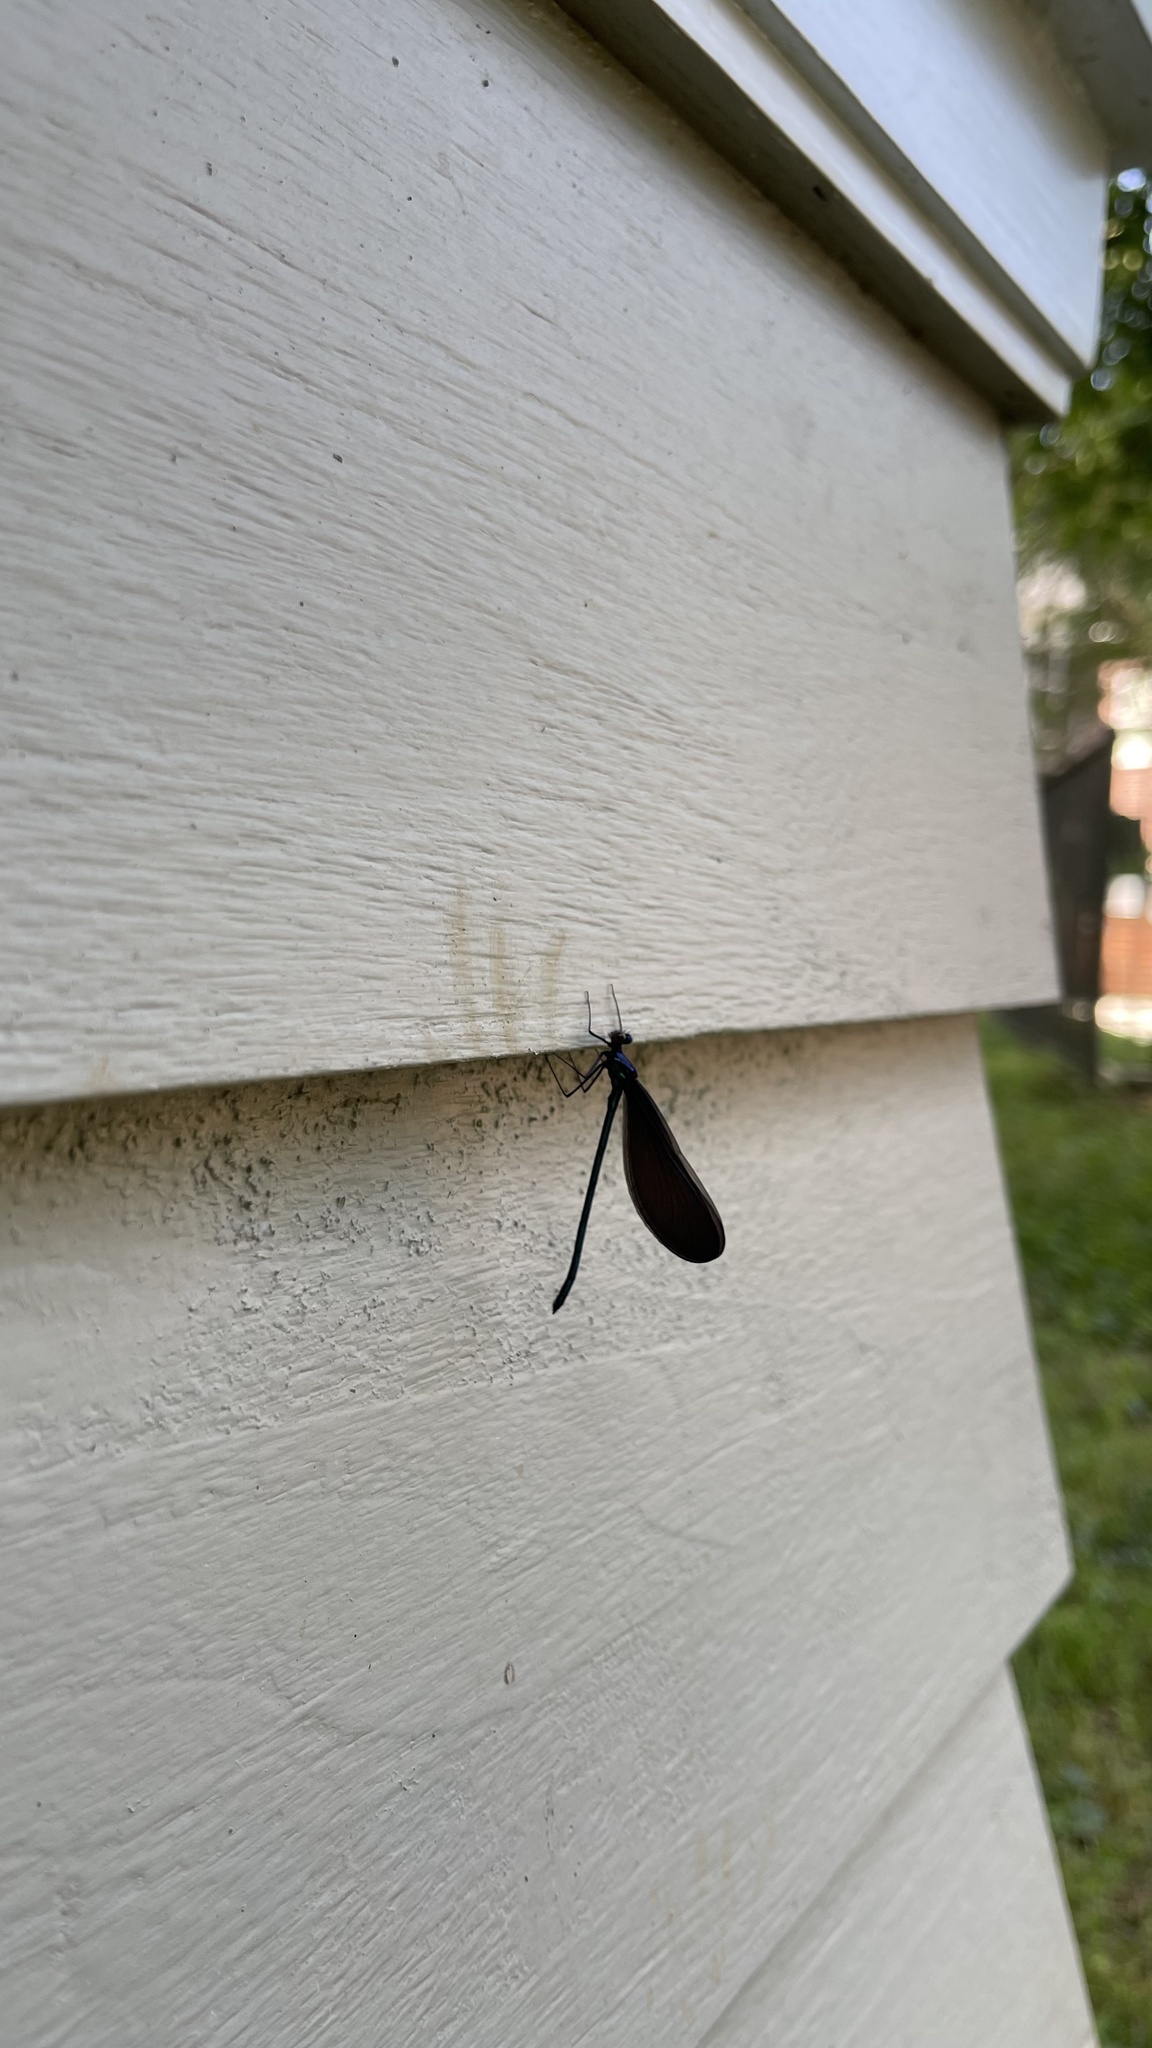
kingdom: Animalia
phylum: Arthropoda
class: Insecta
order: Odonata
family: Calopterygidae
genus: Calopteryx
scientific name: Calopteryx maculata
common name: Ebony jewelwing
